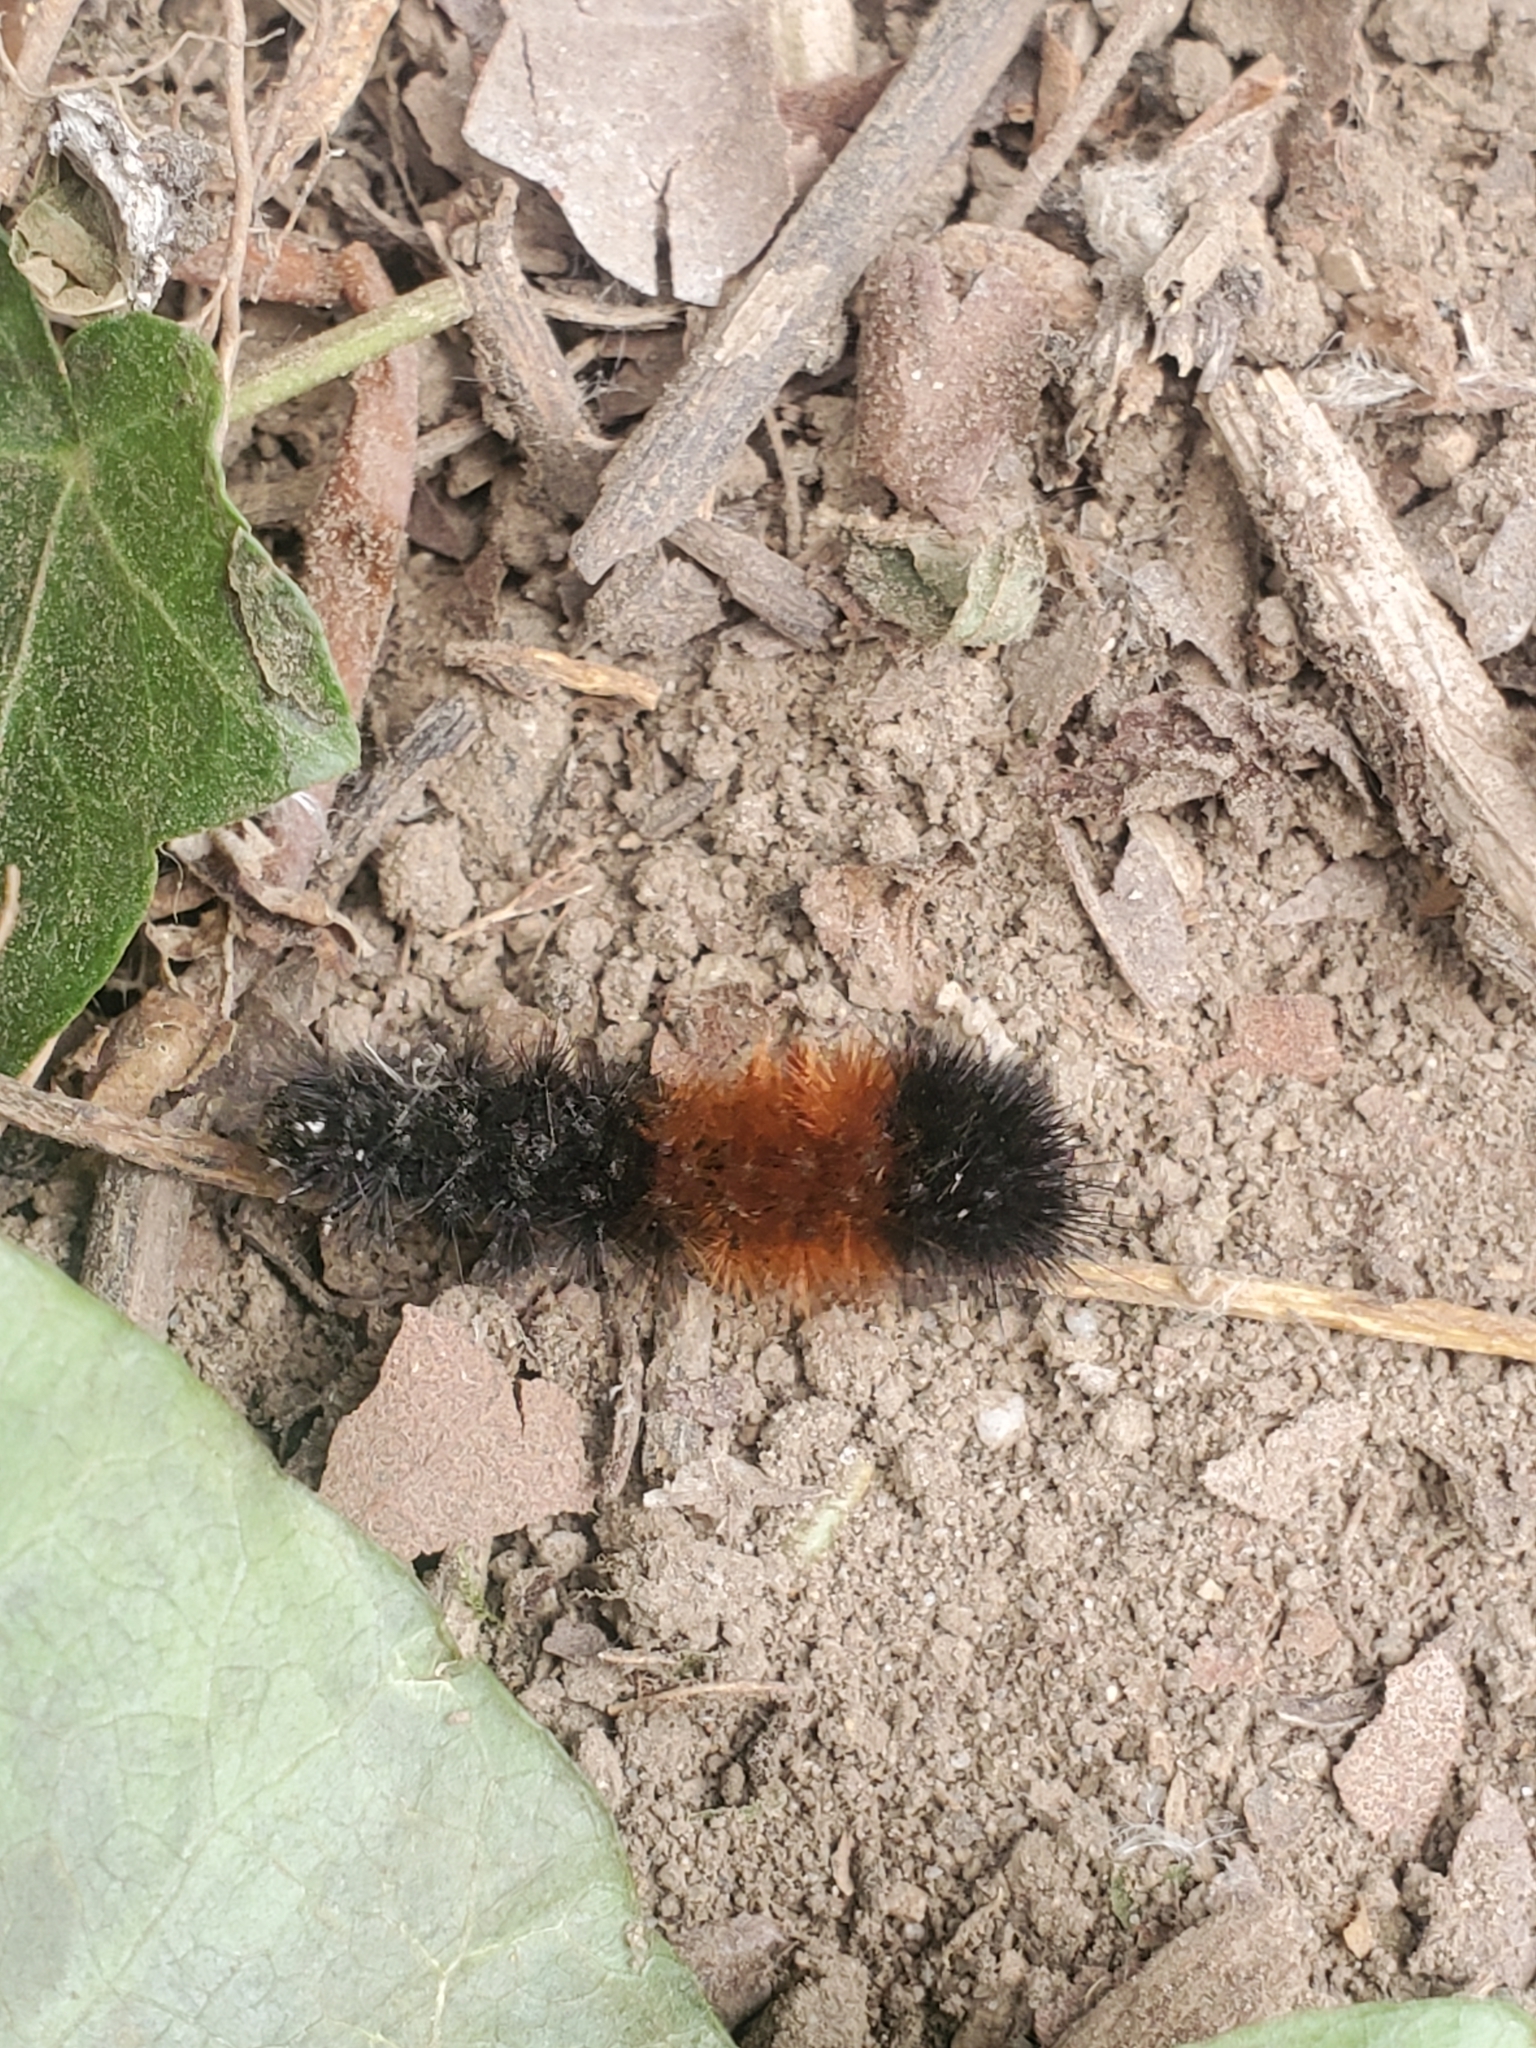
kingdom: Animalia
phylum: Arthropoda
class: Insecta
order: Lepidoptera
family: Erebidae
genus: Pyrrharctia
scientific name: Pyrrharctia isabella
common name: Isabella tiger moth
